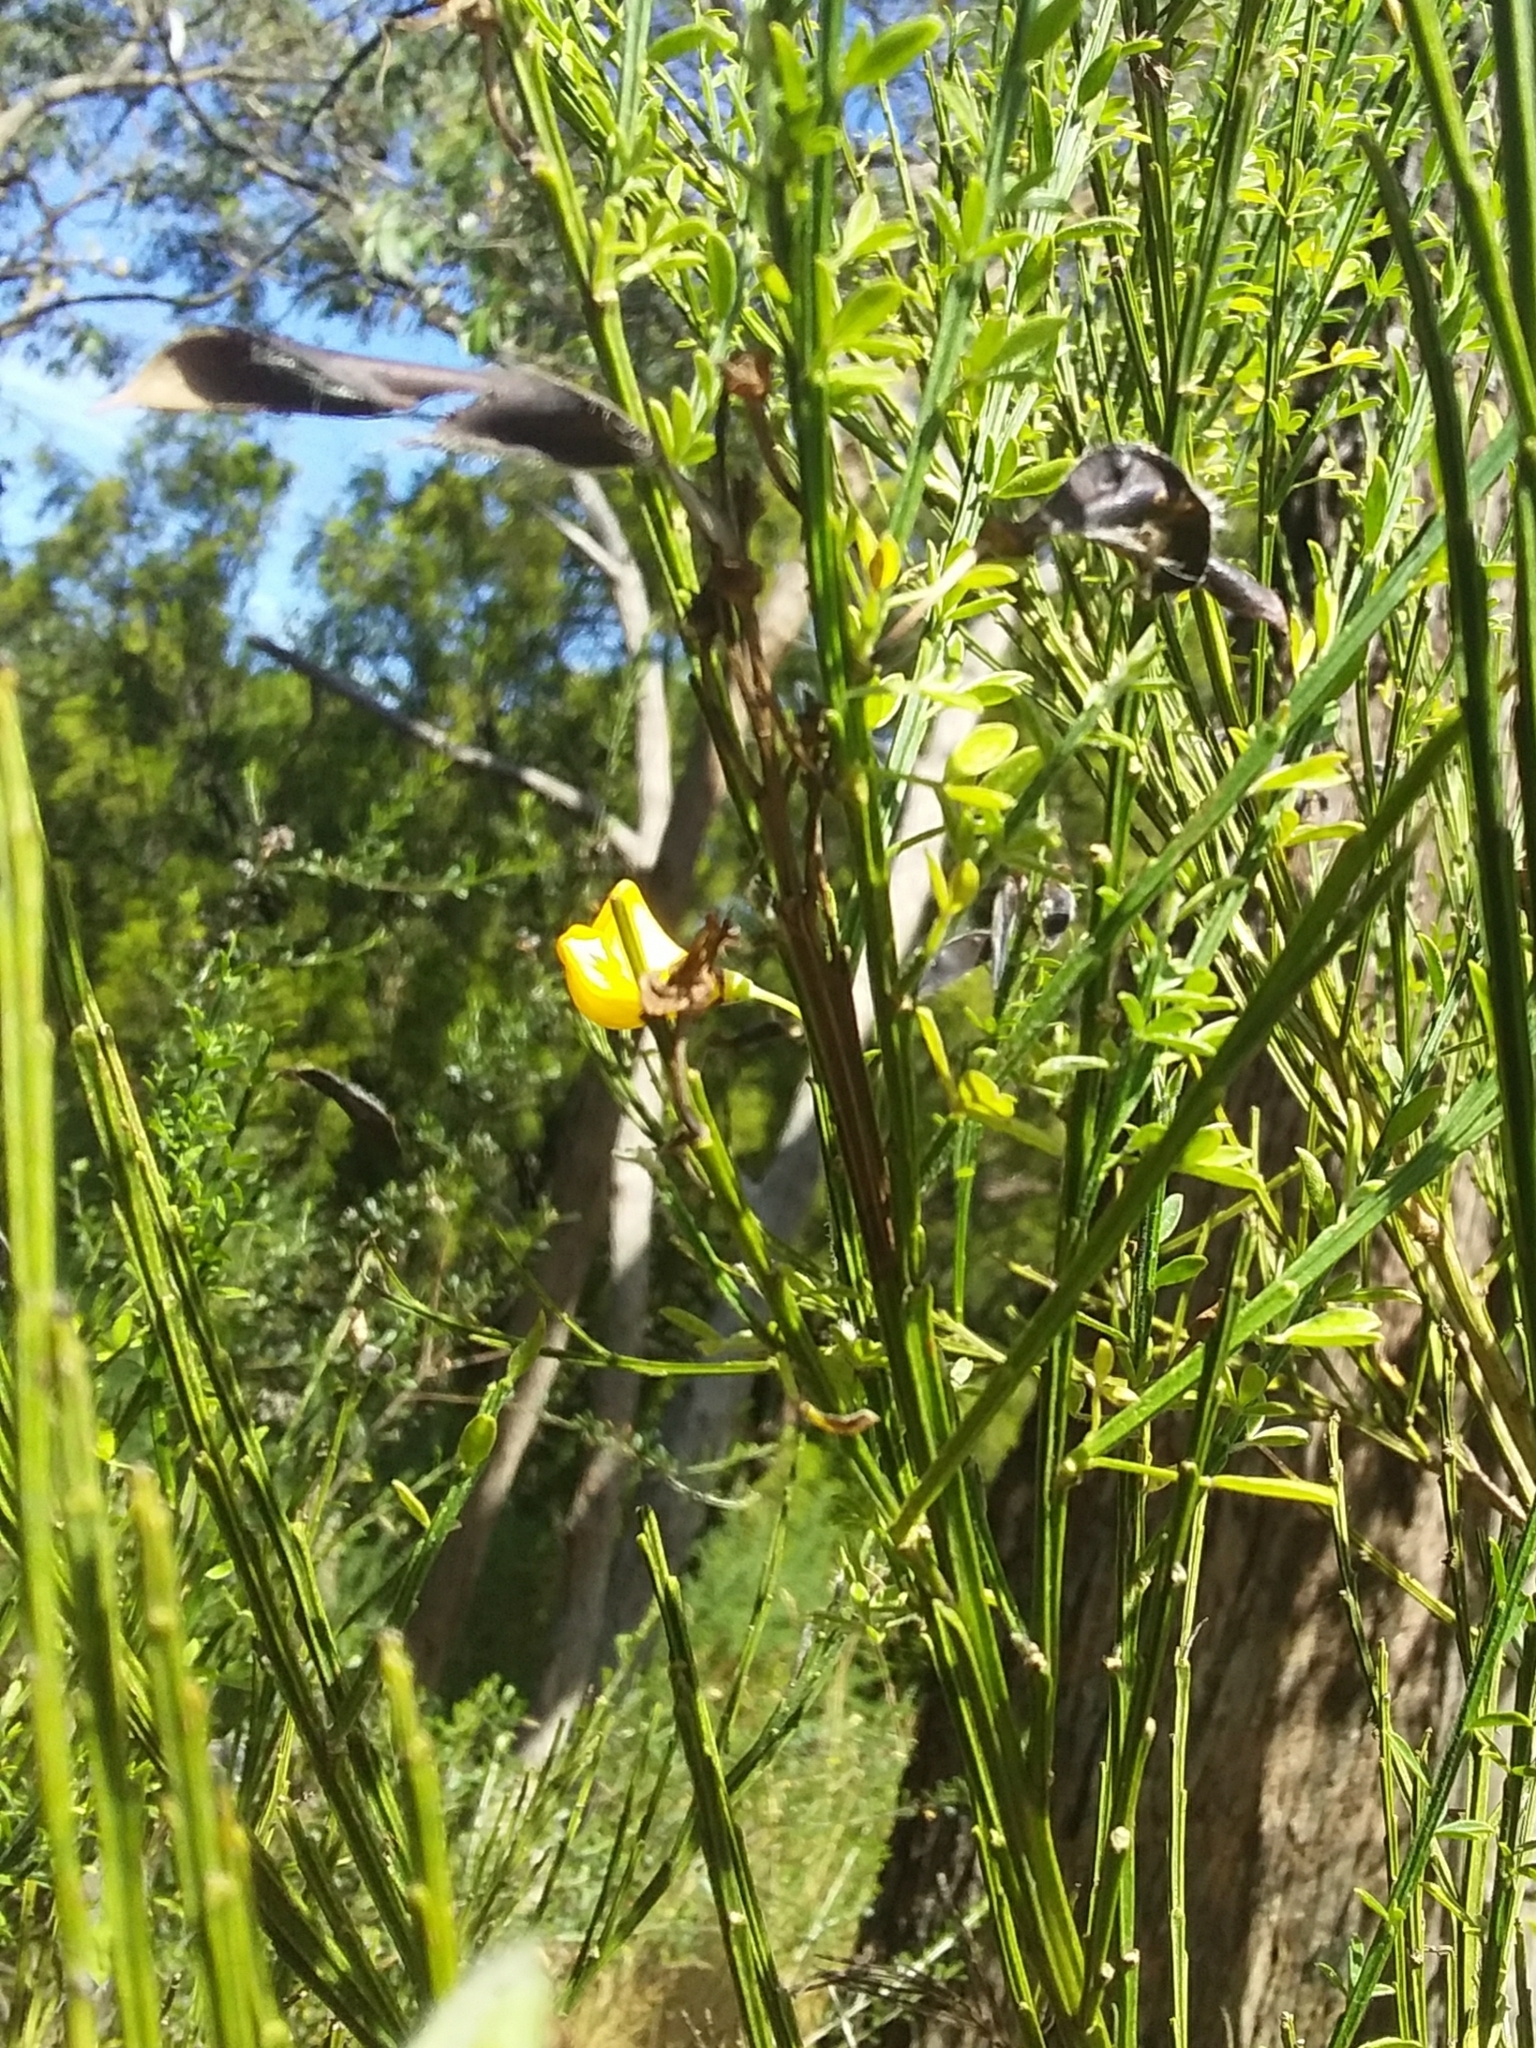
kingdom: Plantae
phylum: Tracheophyta
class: Magnoliopsida
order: Fabales
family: Fabaceae
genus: Cytisus
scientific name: Cytisus scoparius
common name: Scotch broom
